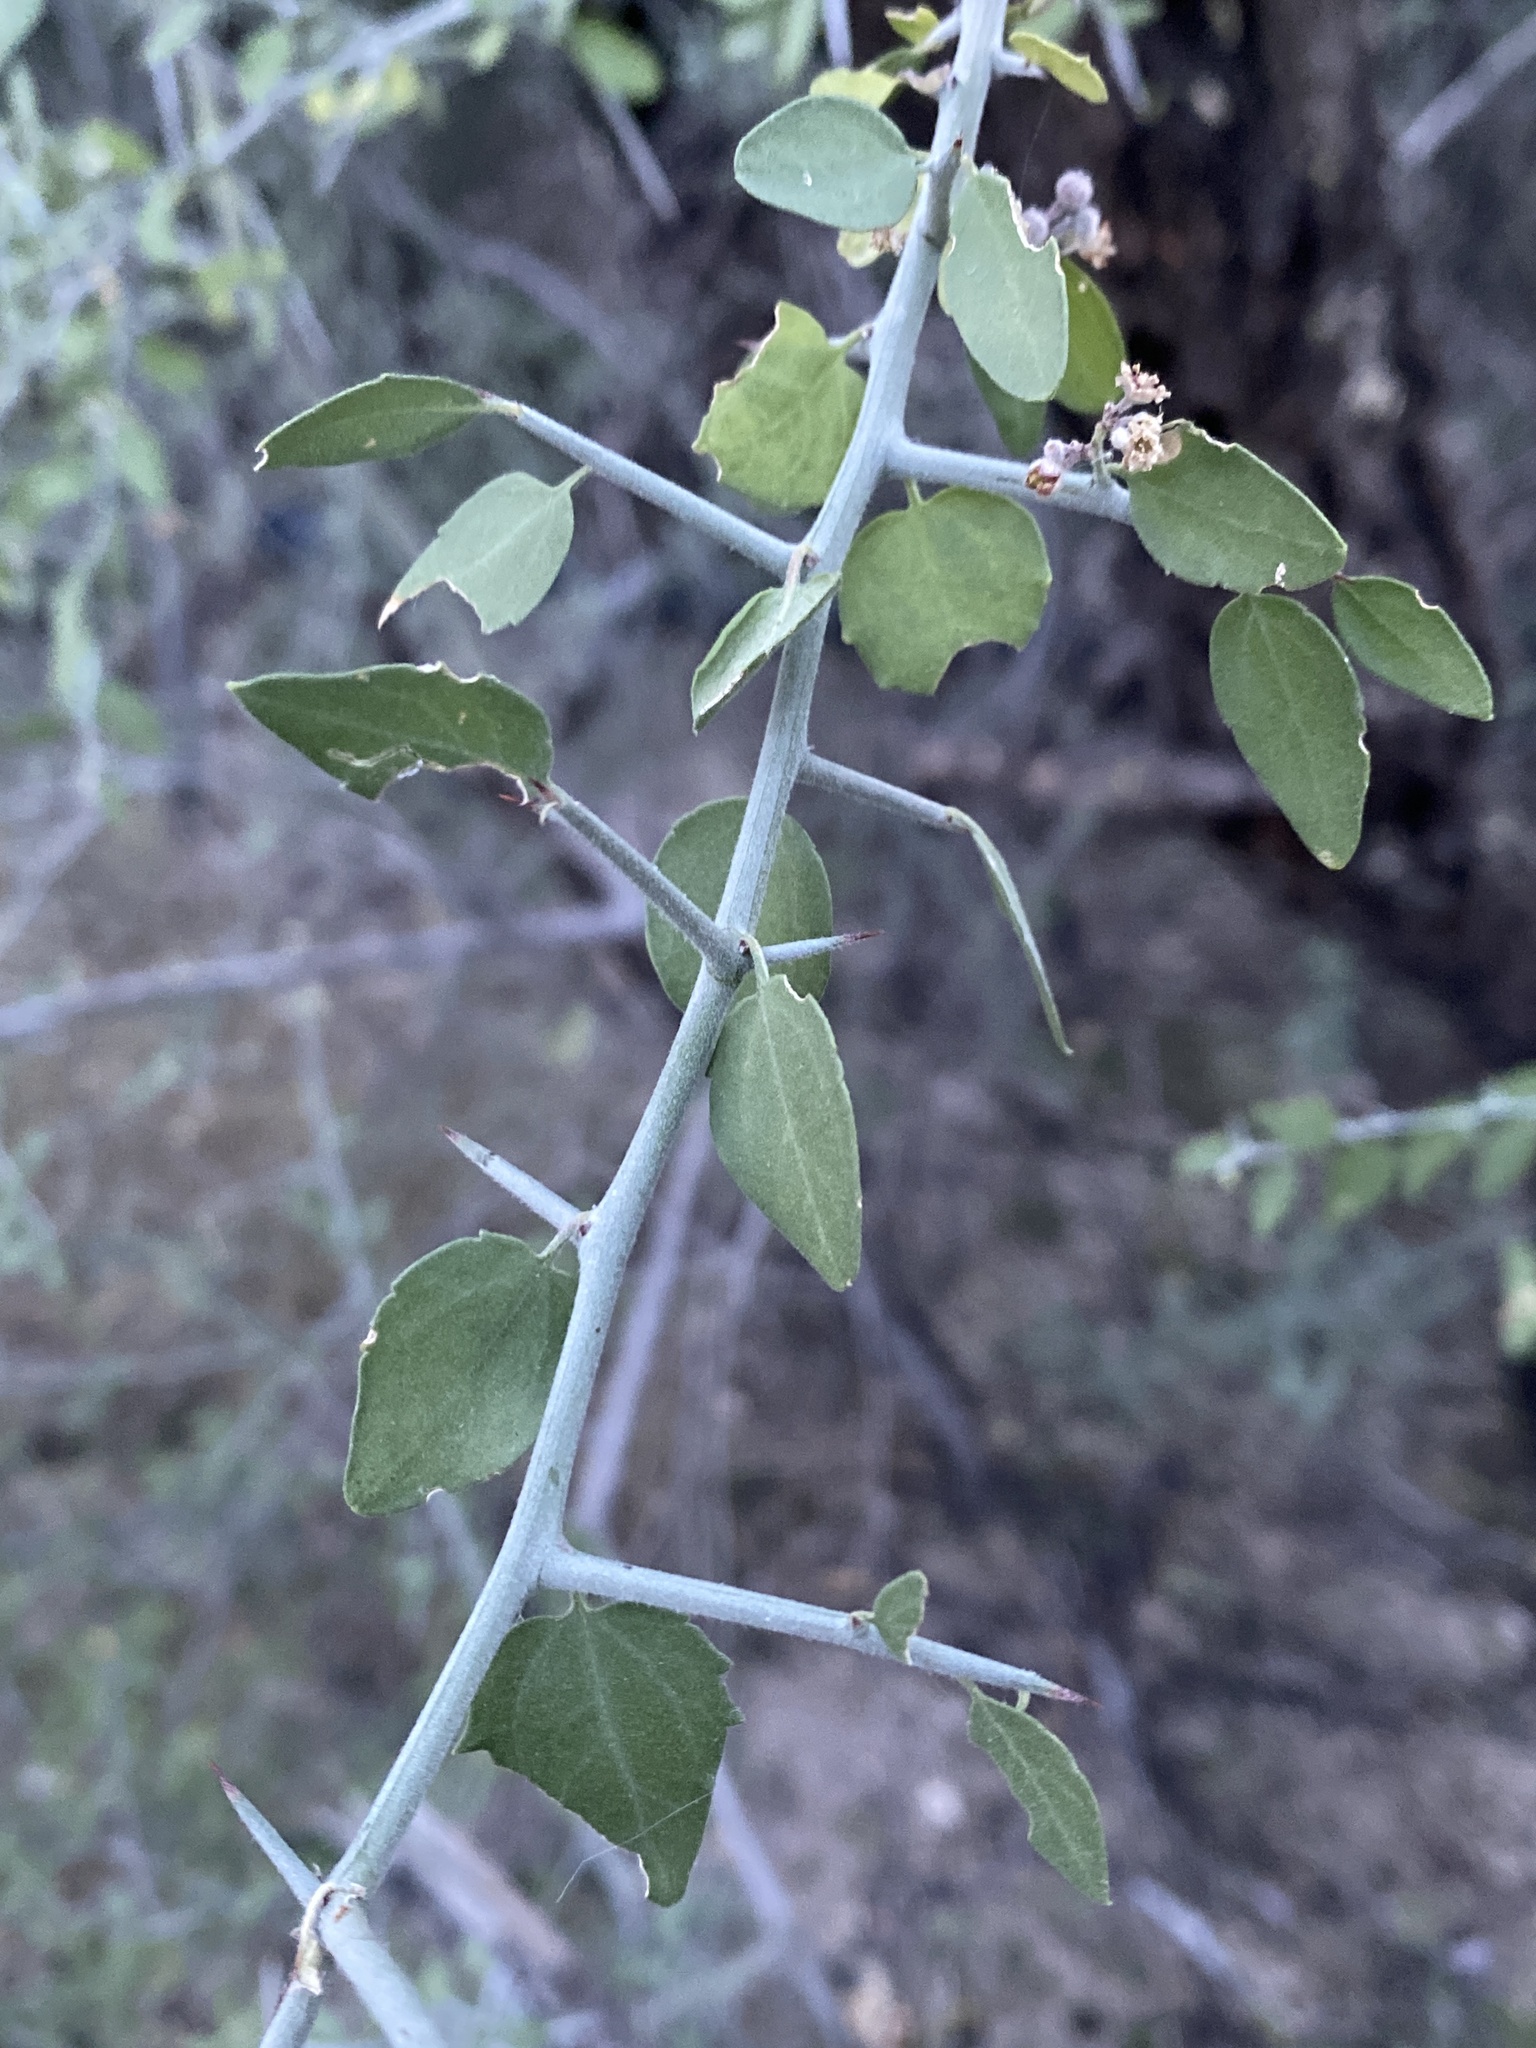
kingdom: Plantae
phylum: Tracheophyta
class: Magnoliopsida
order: Rosales
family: Rhamnaceae
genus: Sarcomphalus
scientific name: Sarcomphalus obtusifolius
